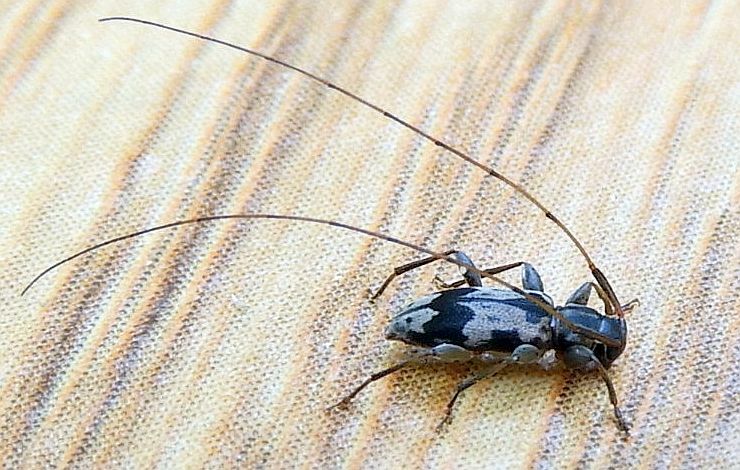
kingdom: Animalia
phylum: Arthropoda
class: Insecta
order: Coleoptera
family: Cerambycidae
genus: Urgleptes
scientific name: Urgleptes querci
